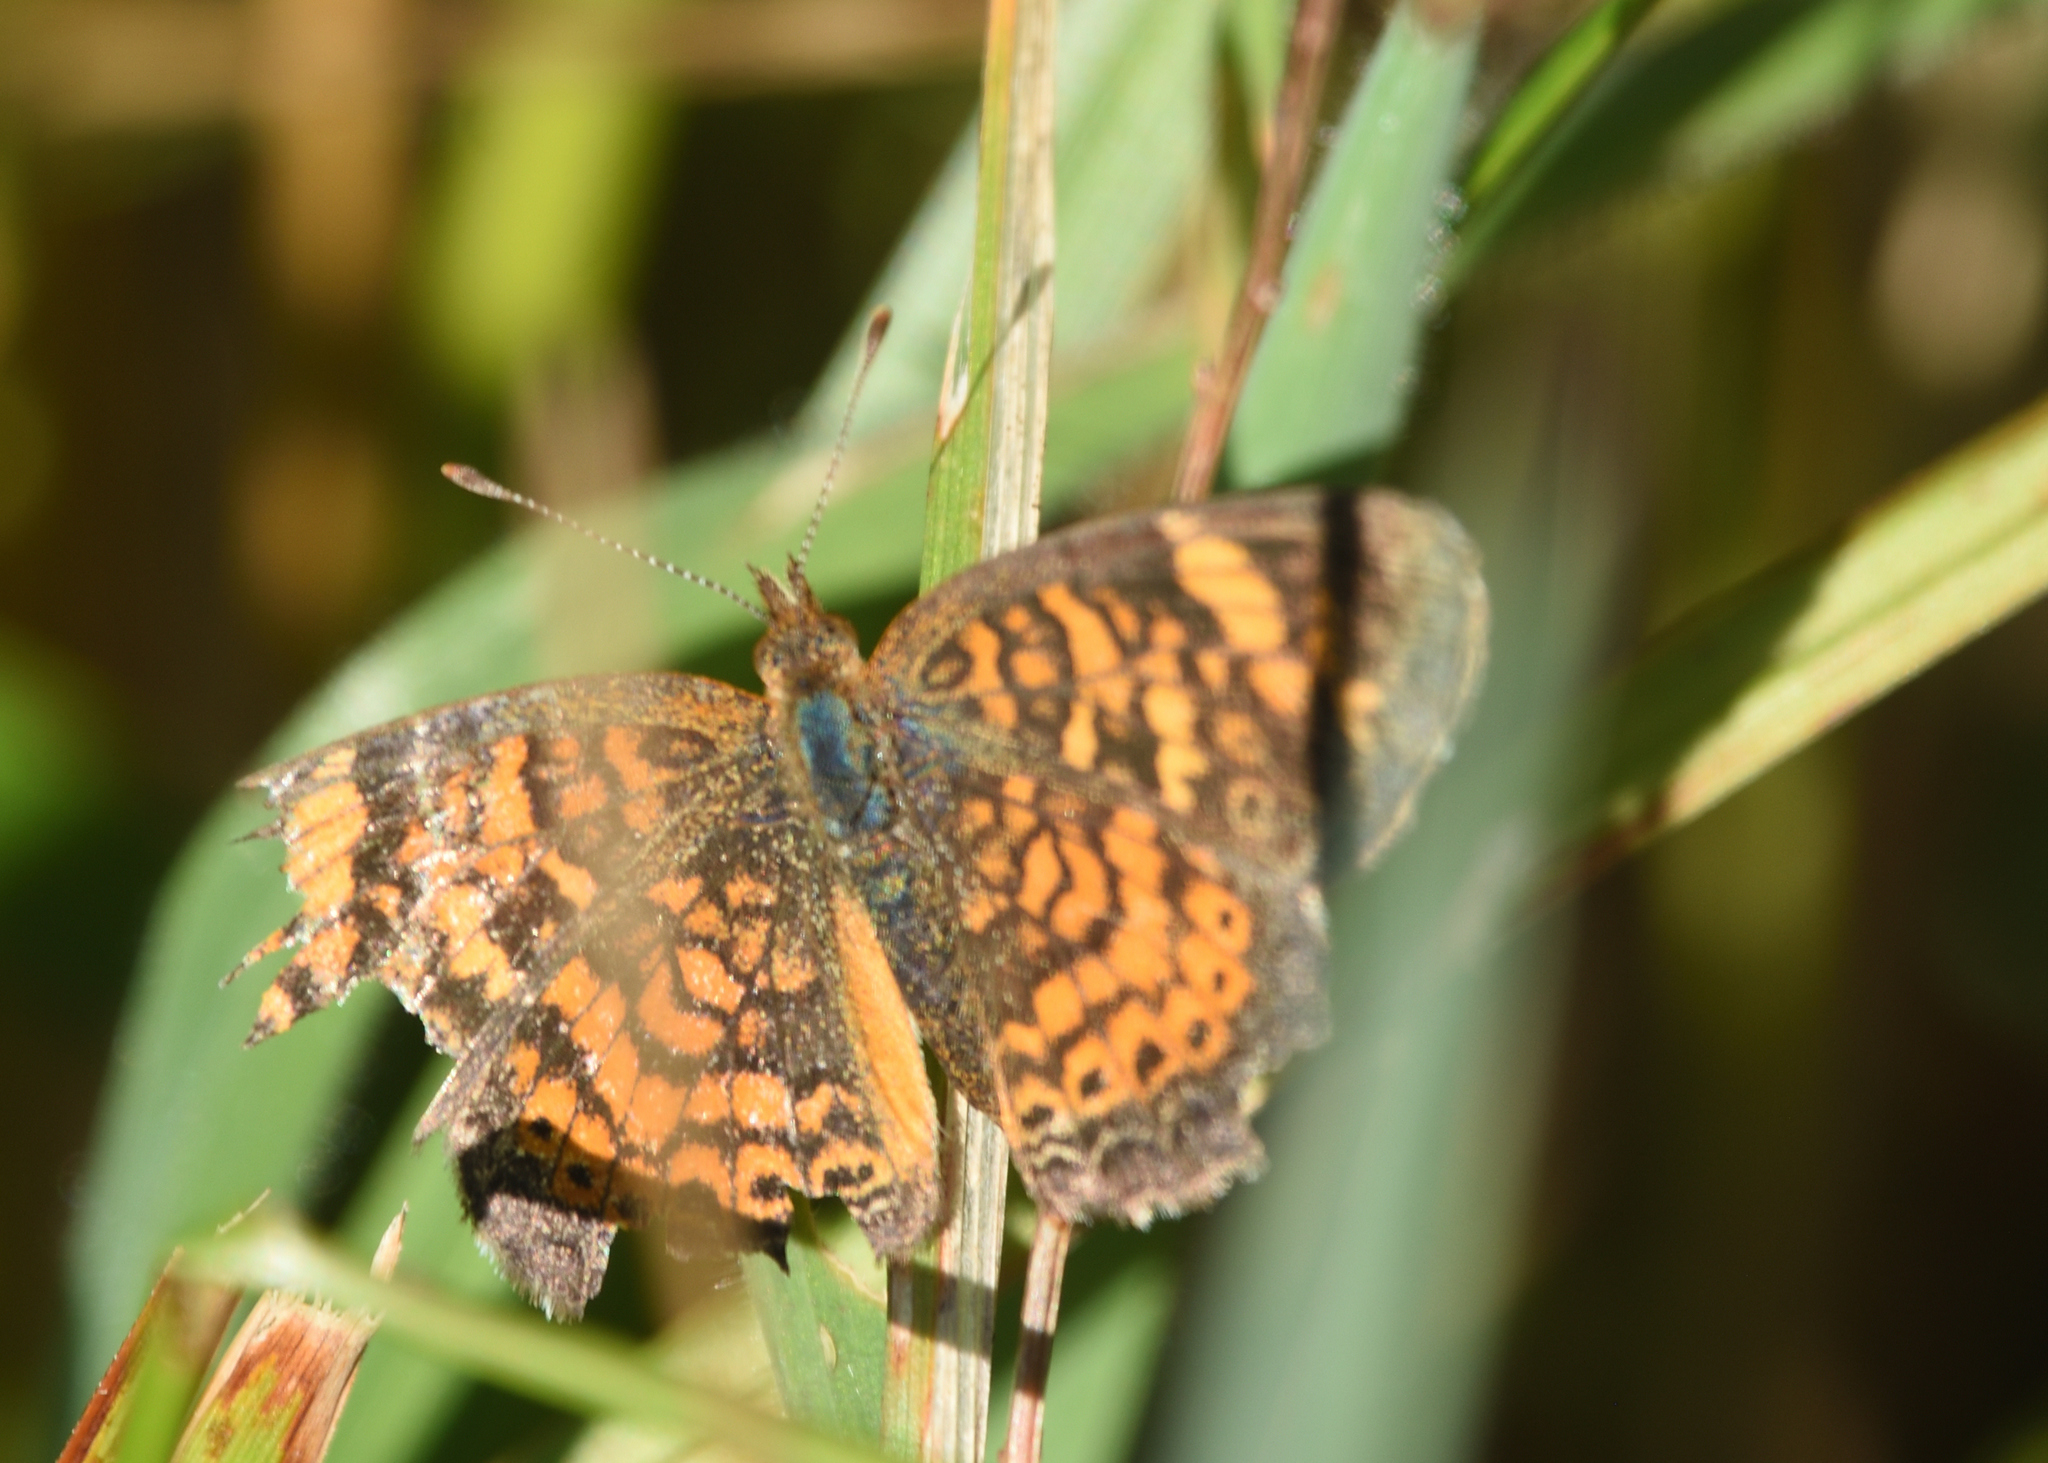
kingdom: Animalia
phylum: Arthropoda
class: Insecta
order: Lepidoptera
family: Nymphalidae
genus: Phyciodes
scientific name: Phyciodes tharos
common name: Pearl crescent
